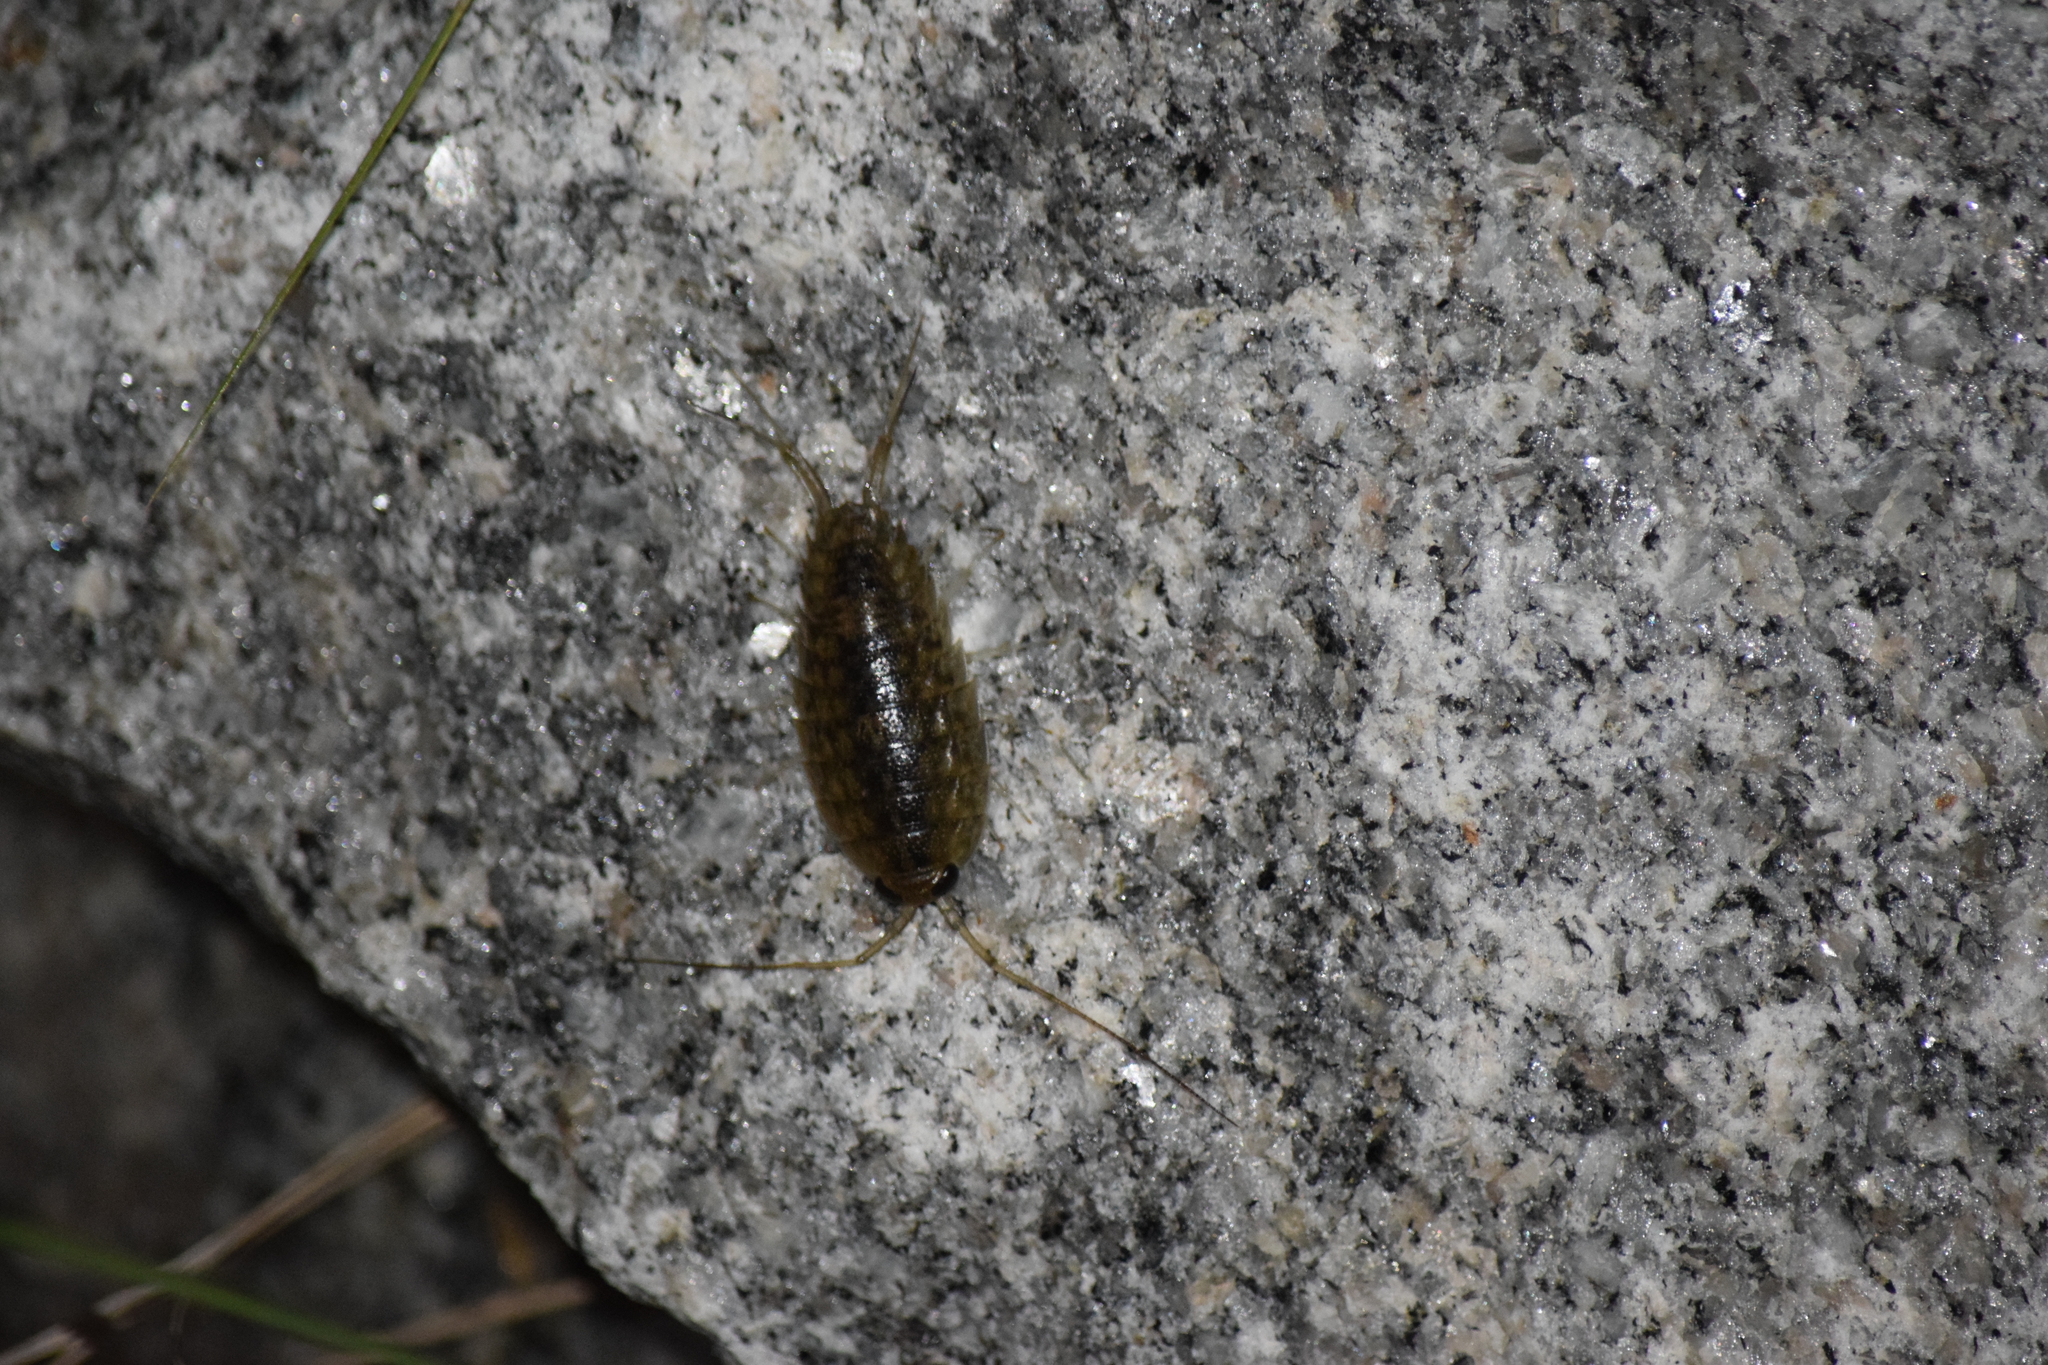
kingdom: Animalia
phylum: Arthropoda
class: Malacostraca
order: Isopoda
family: Ligiidae
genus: Ligia
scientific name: Ligia exotica
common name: Wharf roach
